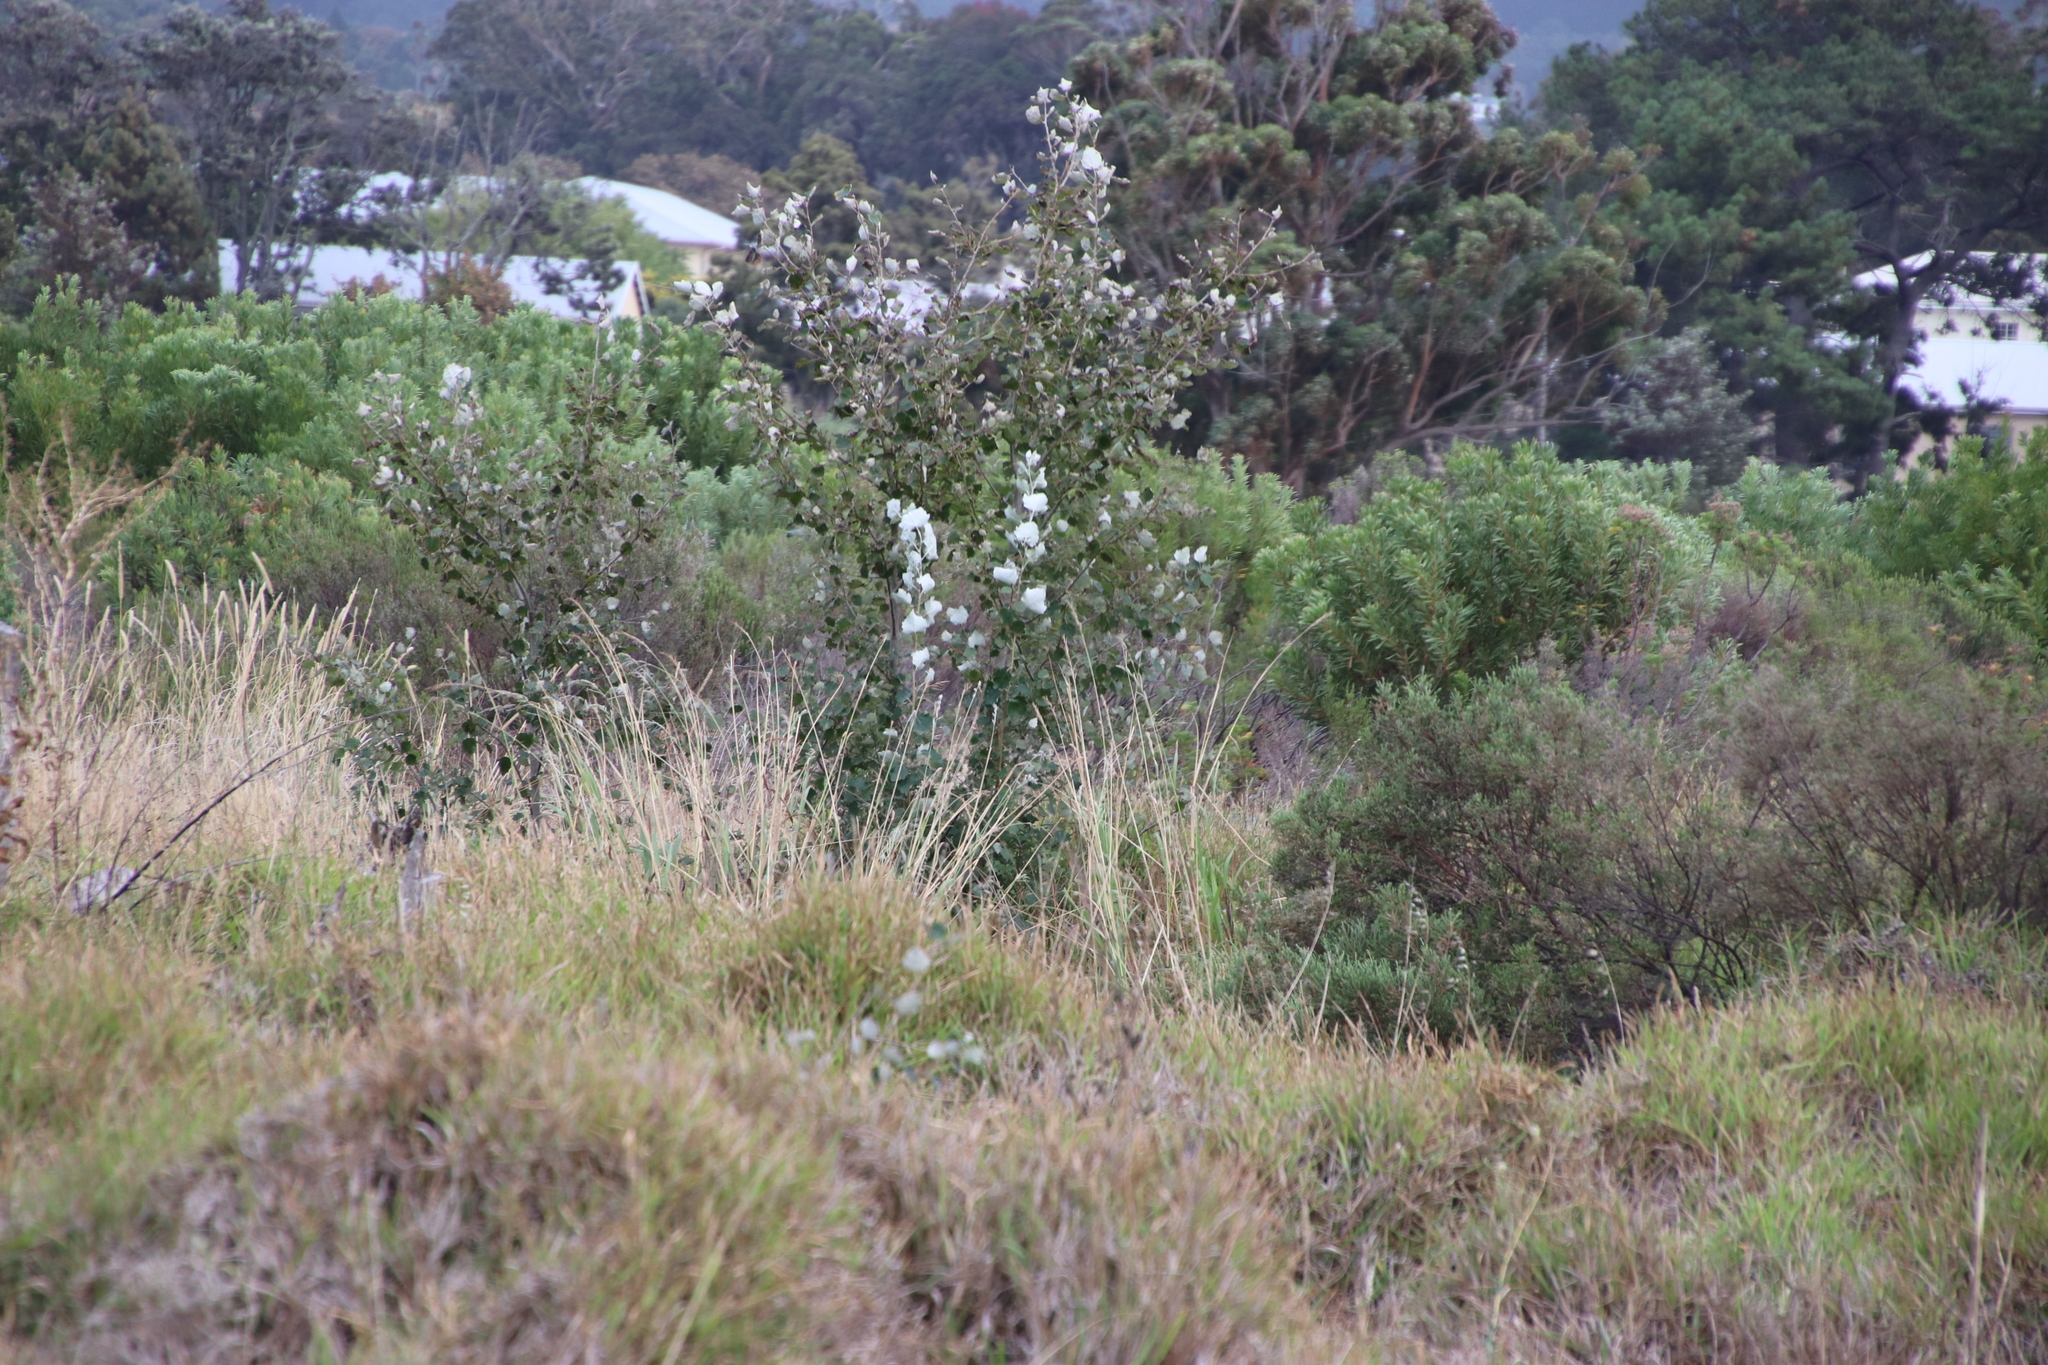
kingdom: Plantae
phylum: Tracheophyta
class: Magnoliopsida
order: Malpighiales
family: Salicaceae
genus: Populus
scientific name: Populus canescens
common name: Gray poplar
